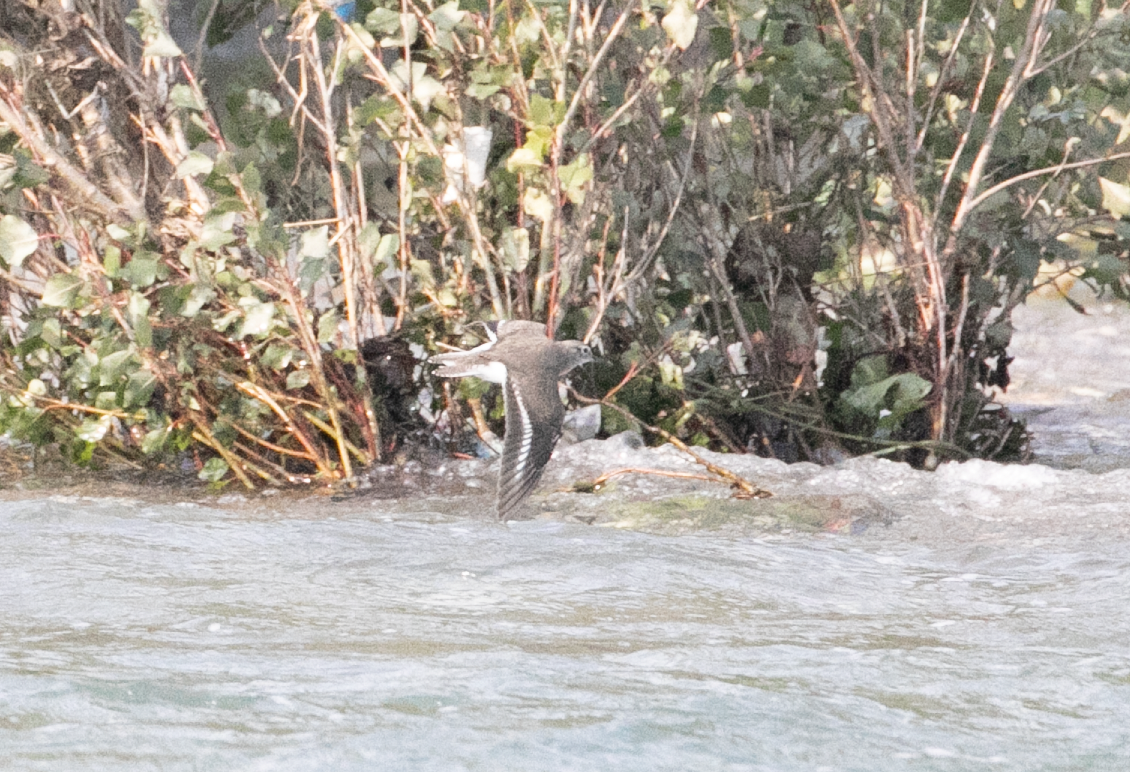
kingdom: Animalia
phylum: Chordata
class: Aves
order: Charadriiformes
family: Scolopacidae
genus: Actitis
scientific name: Actitis hypoleucos
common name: Common sandpiper
